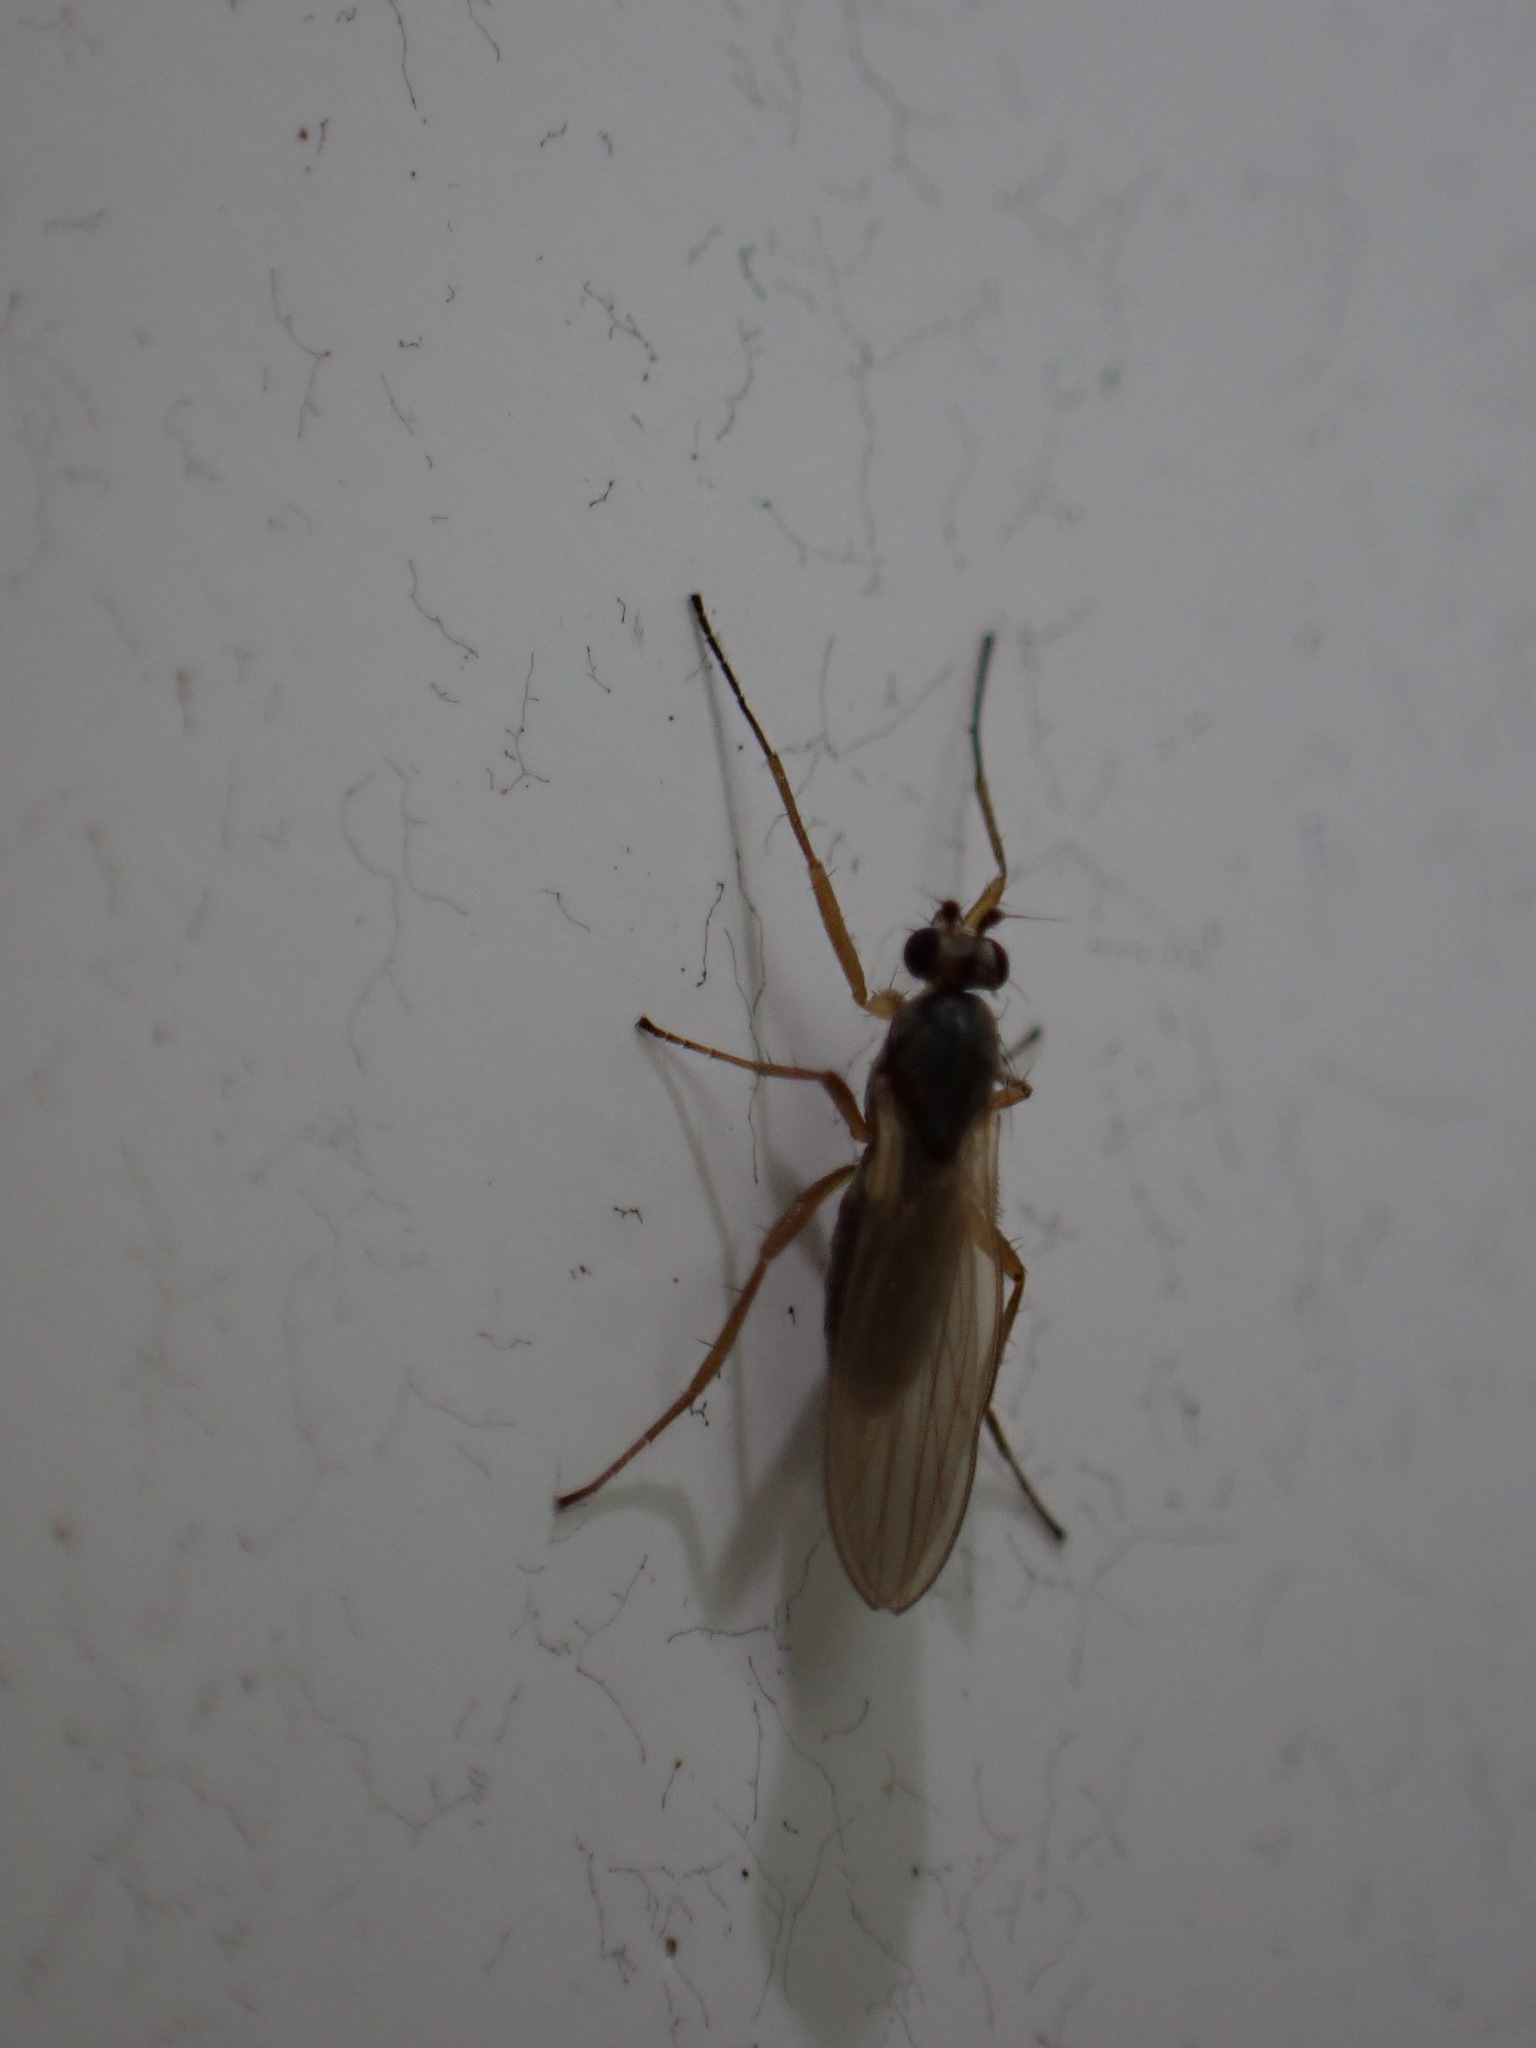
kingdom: Animalia
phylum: Arthropoda
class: Insecta
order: Diptera
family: Lonchopteridae
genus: Lonchoptera
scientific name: Lonchoptera bifurcata
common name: Spear-winged fly
